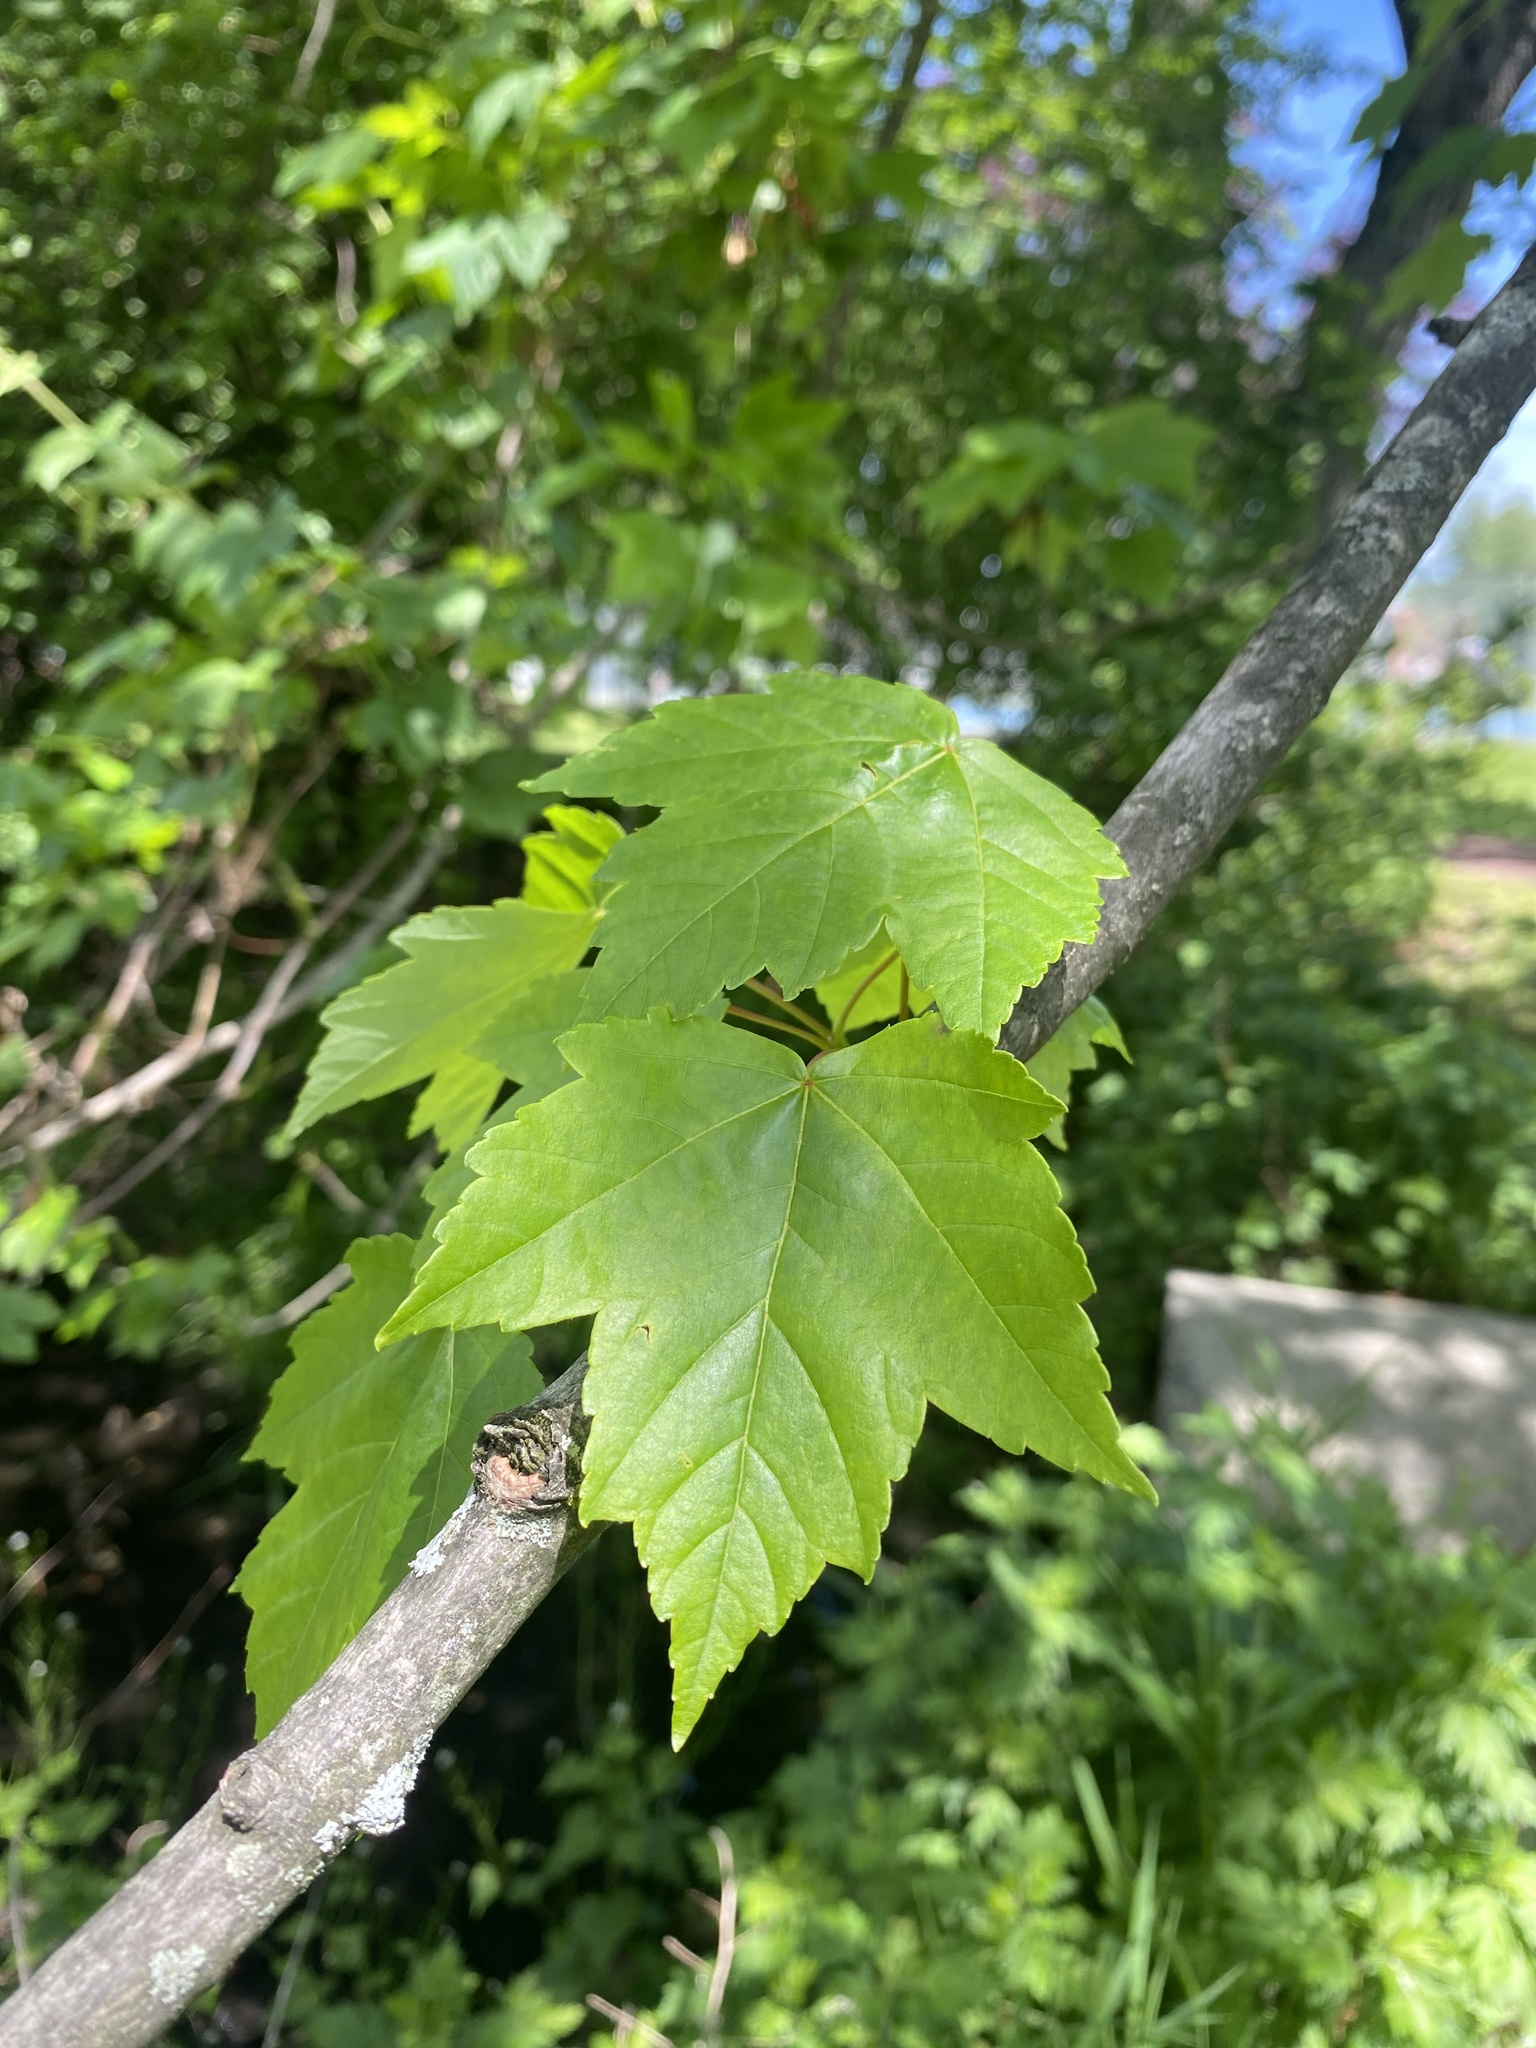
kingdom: Plantae
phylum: Tracheophyta
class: Magnoliopsida
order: Sapindales
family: Sapindaceae
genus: Acer
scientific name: Acer rubrum
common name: Red maple
